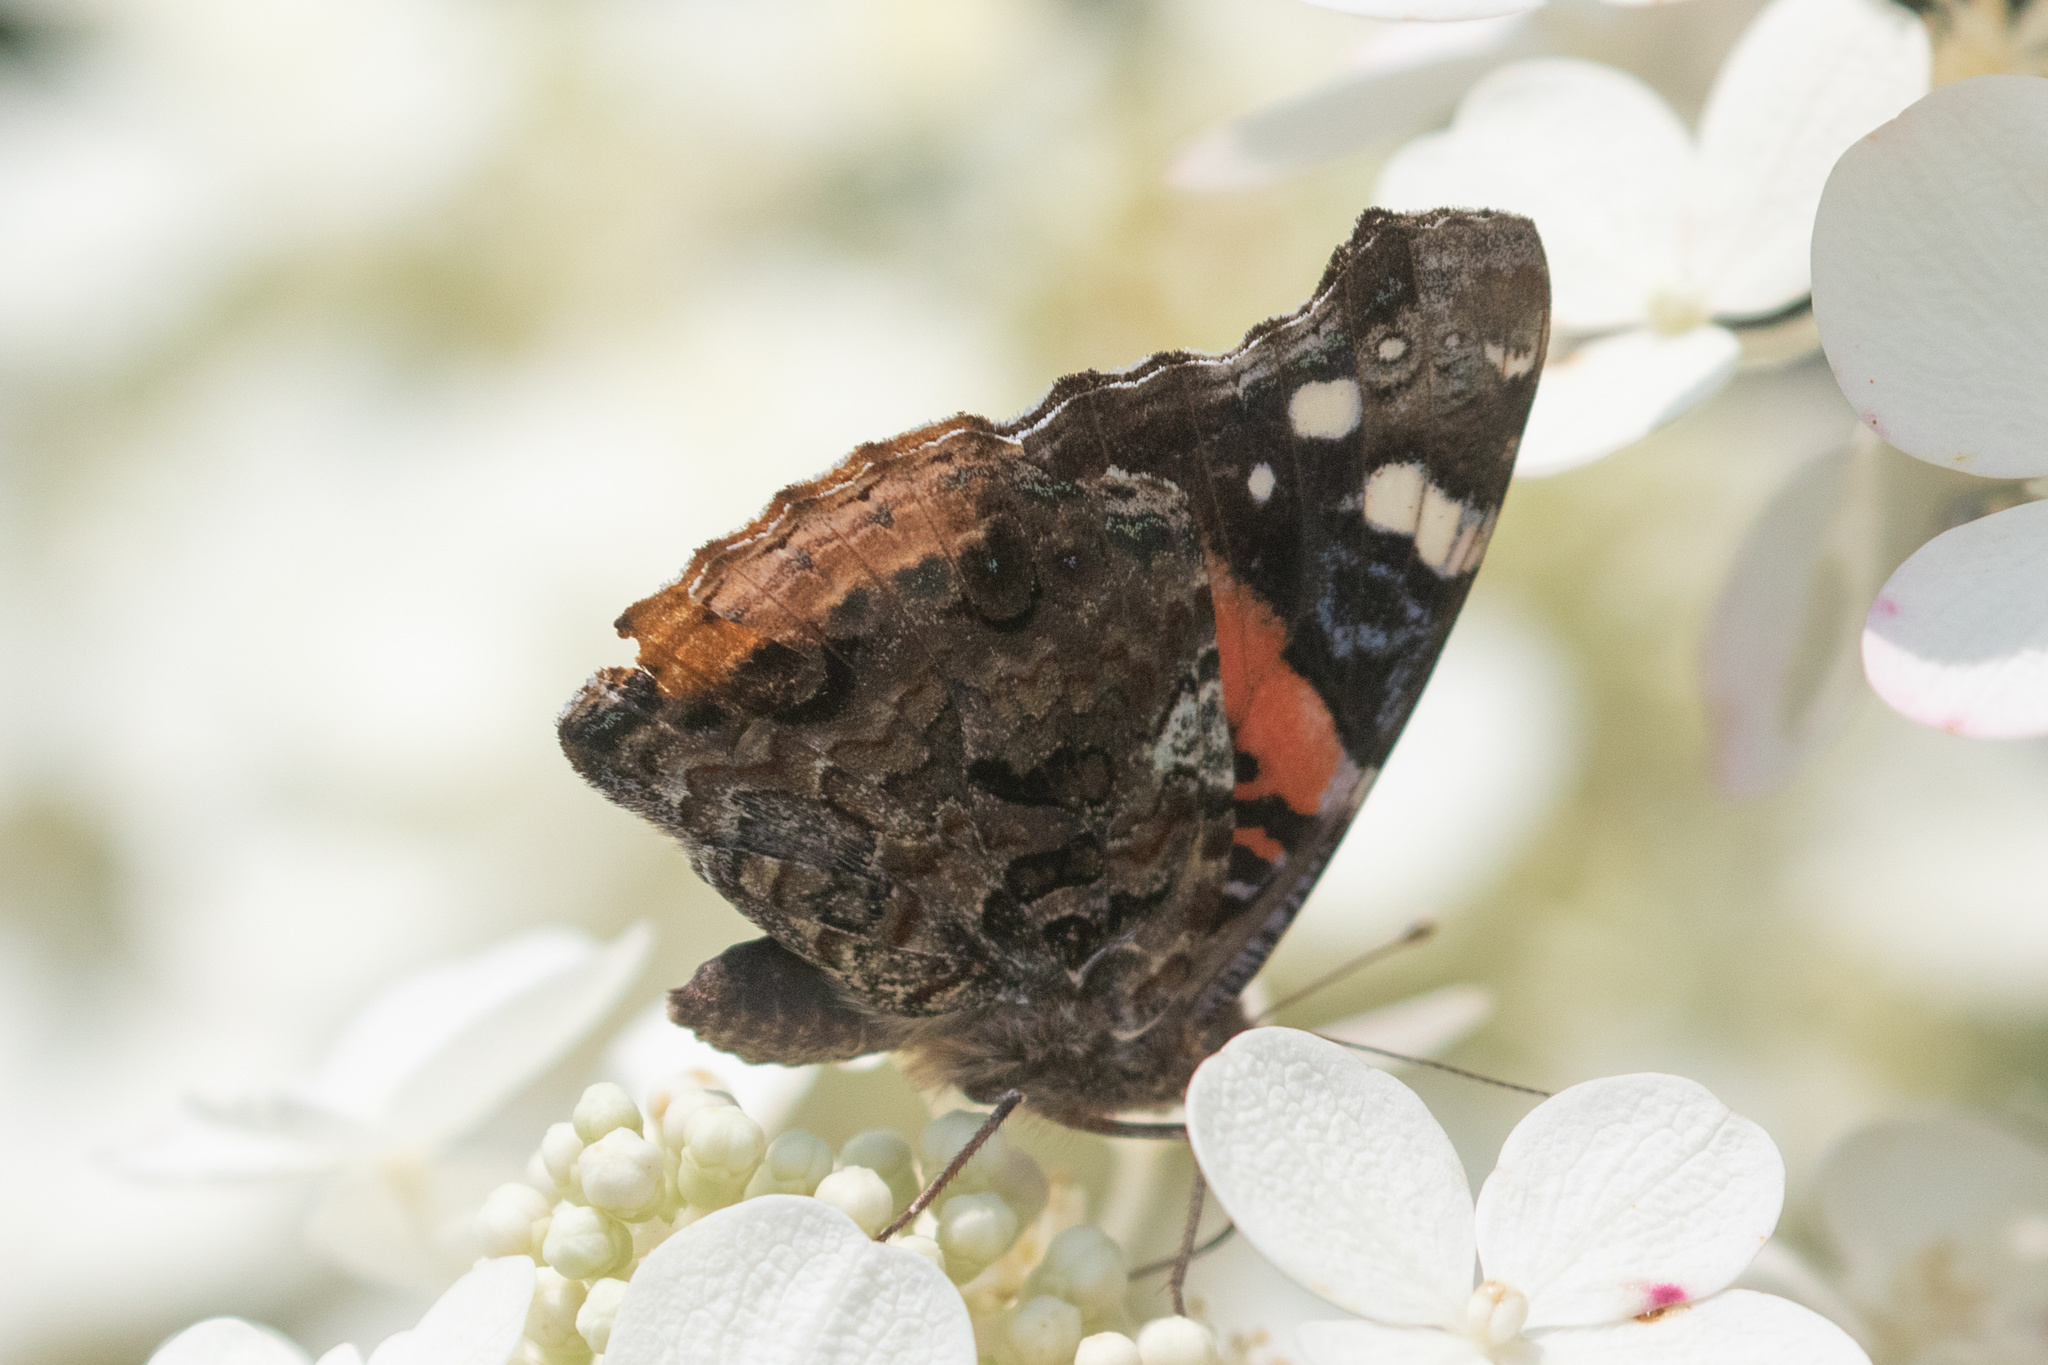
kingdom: Animalia
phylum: Arthropoda
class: Insecta
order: Lepidoptera
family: Nymphalidae
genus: Vanessa
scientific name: Vanessa atalanta
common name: Red admiral
